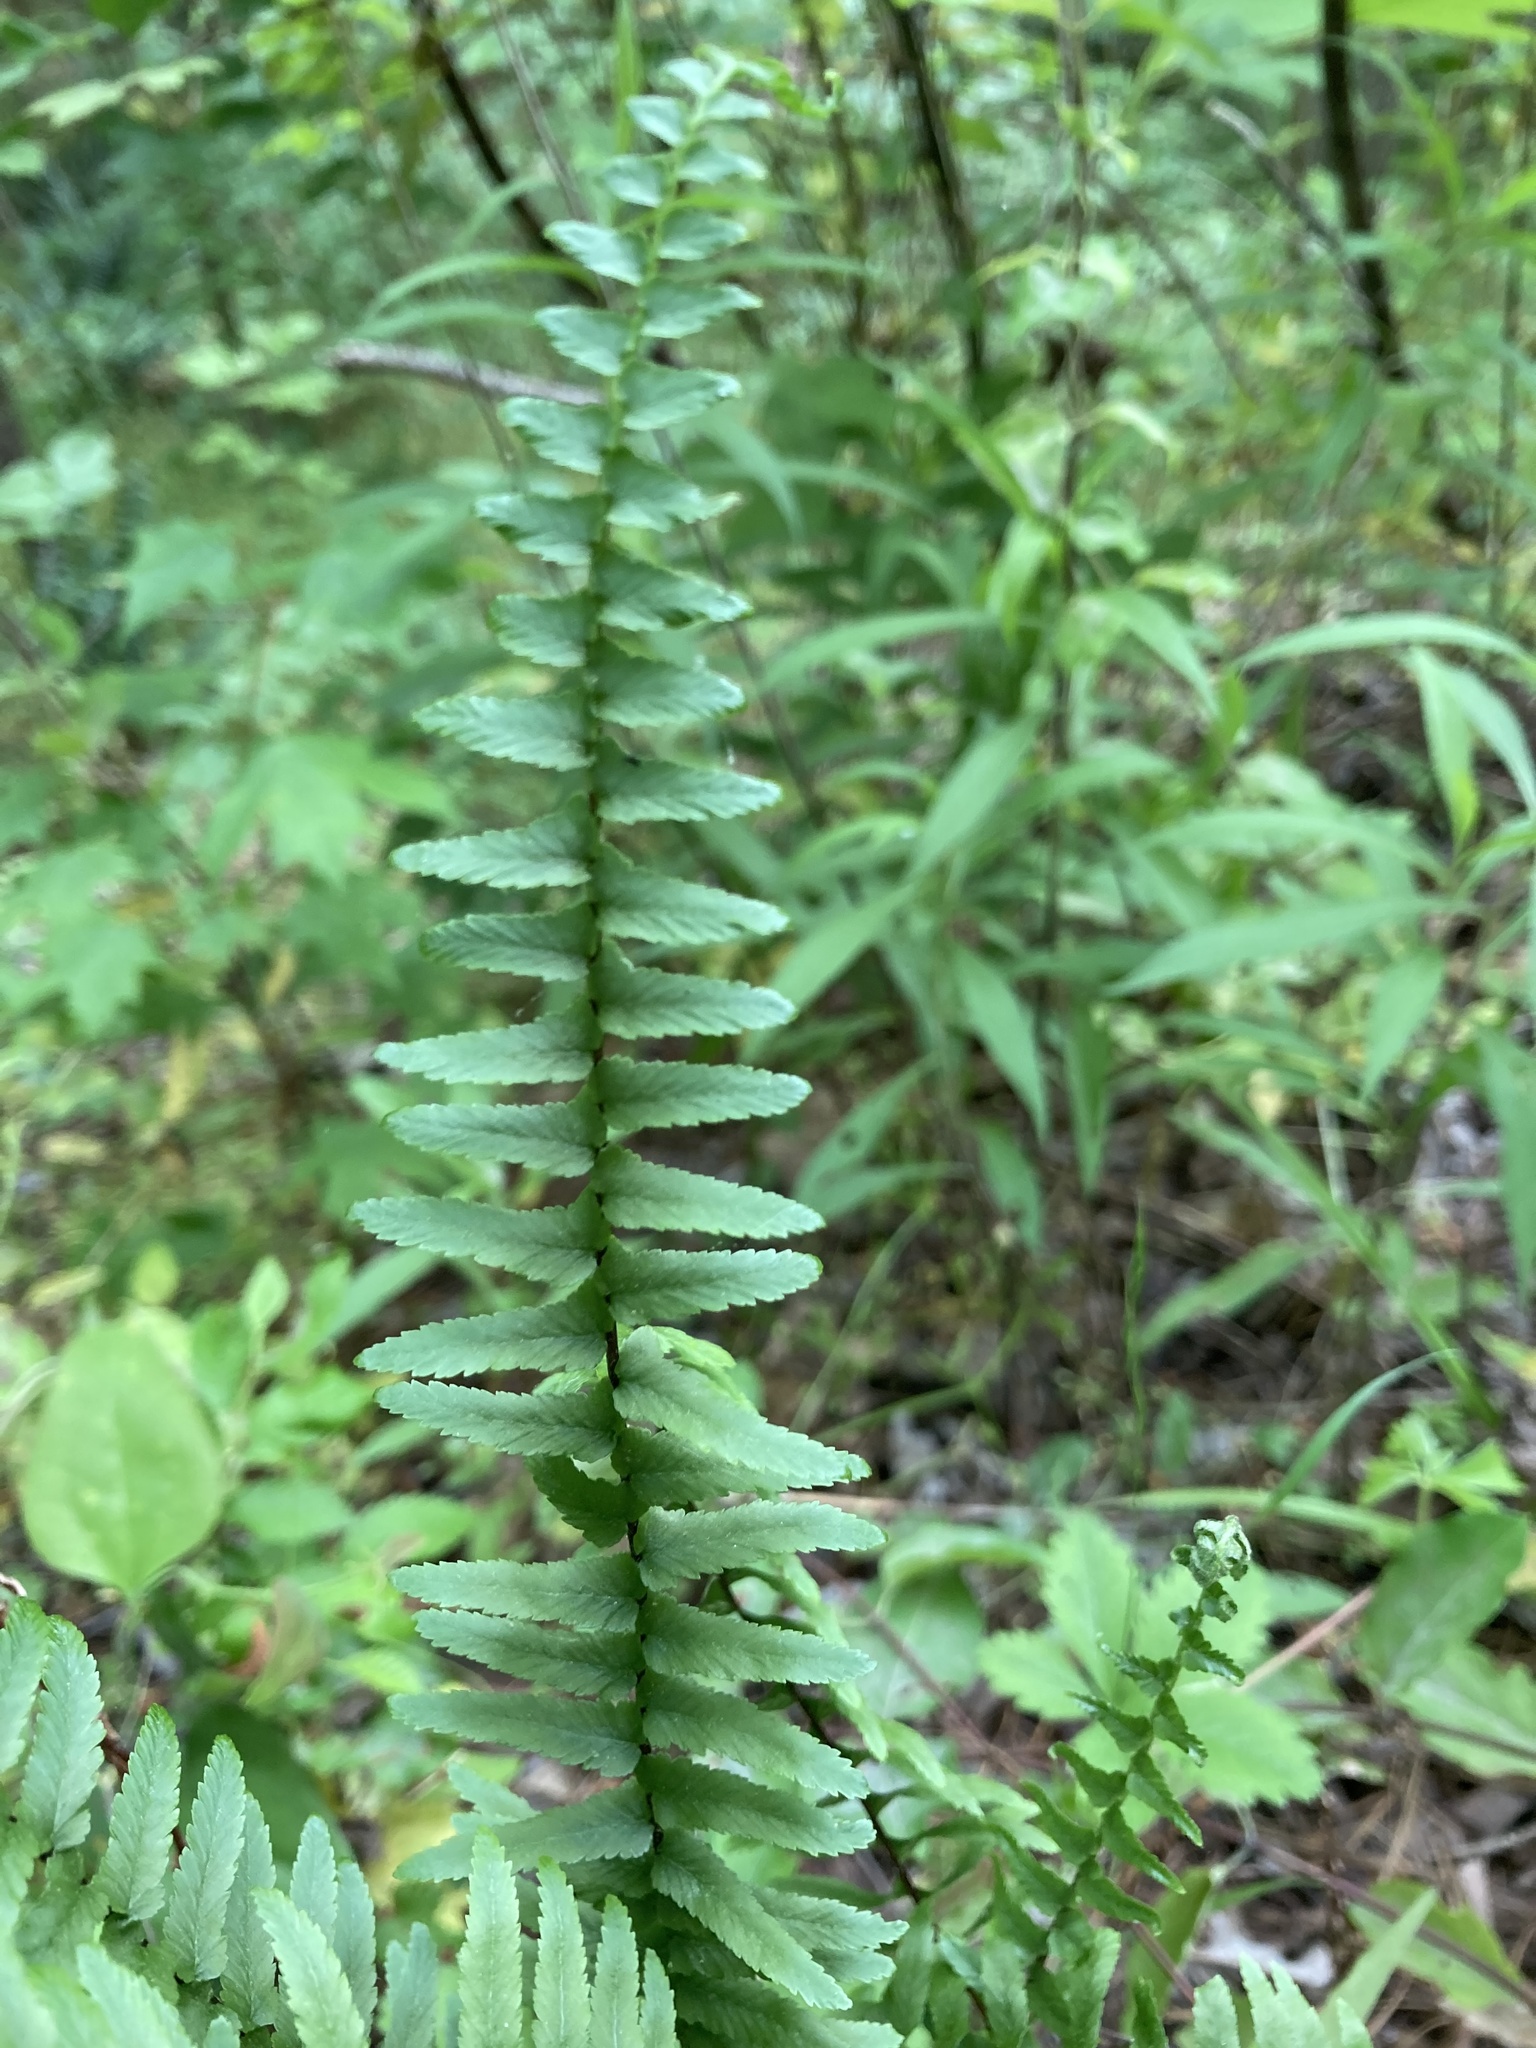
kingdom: Plantae
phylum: Tracheophyta
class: Polypodiopsida
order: Polypodiales
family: Aspleniaceae
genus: Asplenium
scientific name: Asplenium platyneuron
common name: Ebony spleenwort
